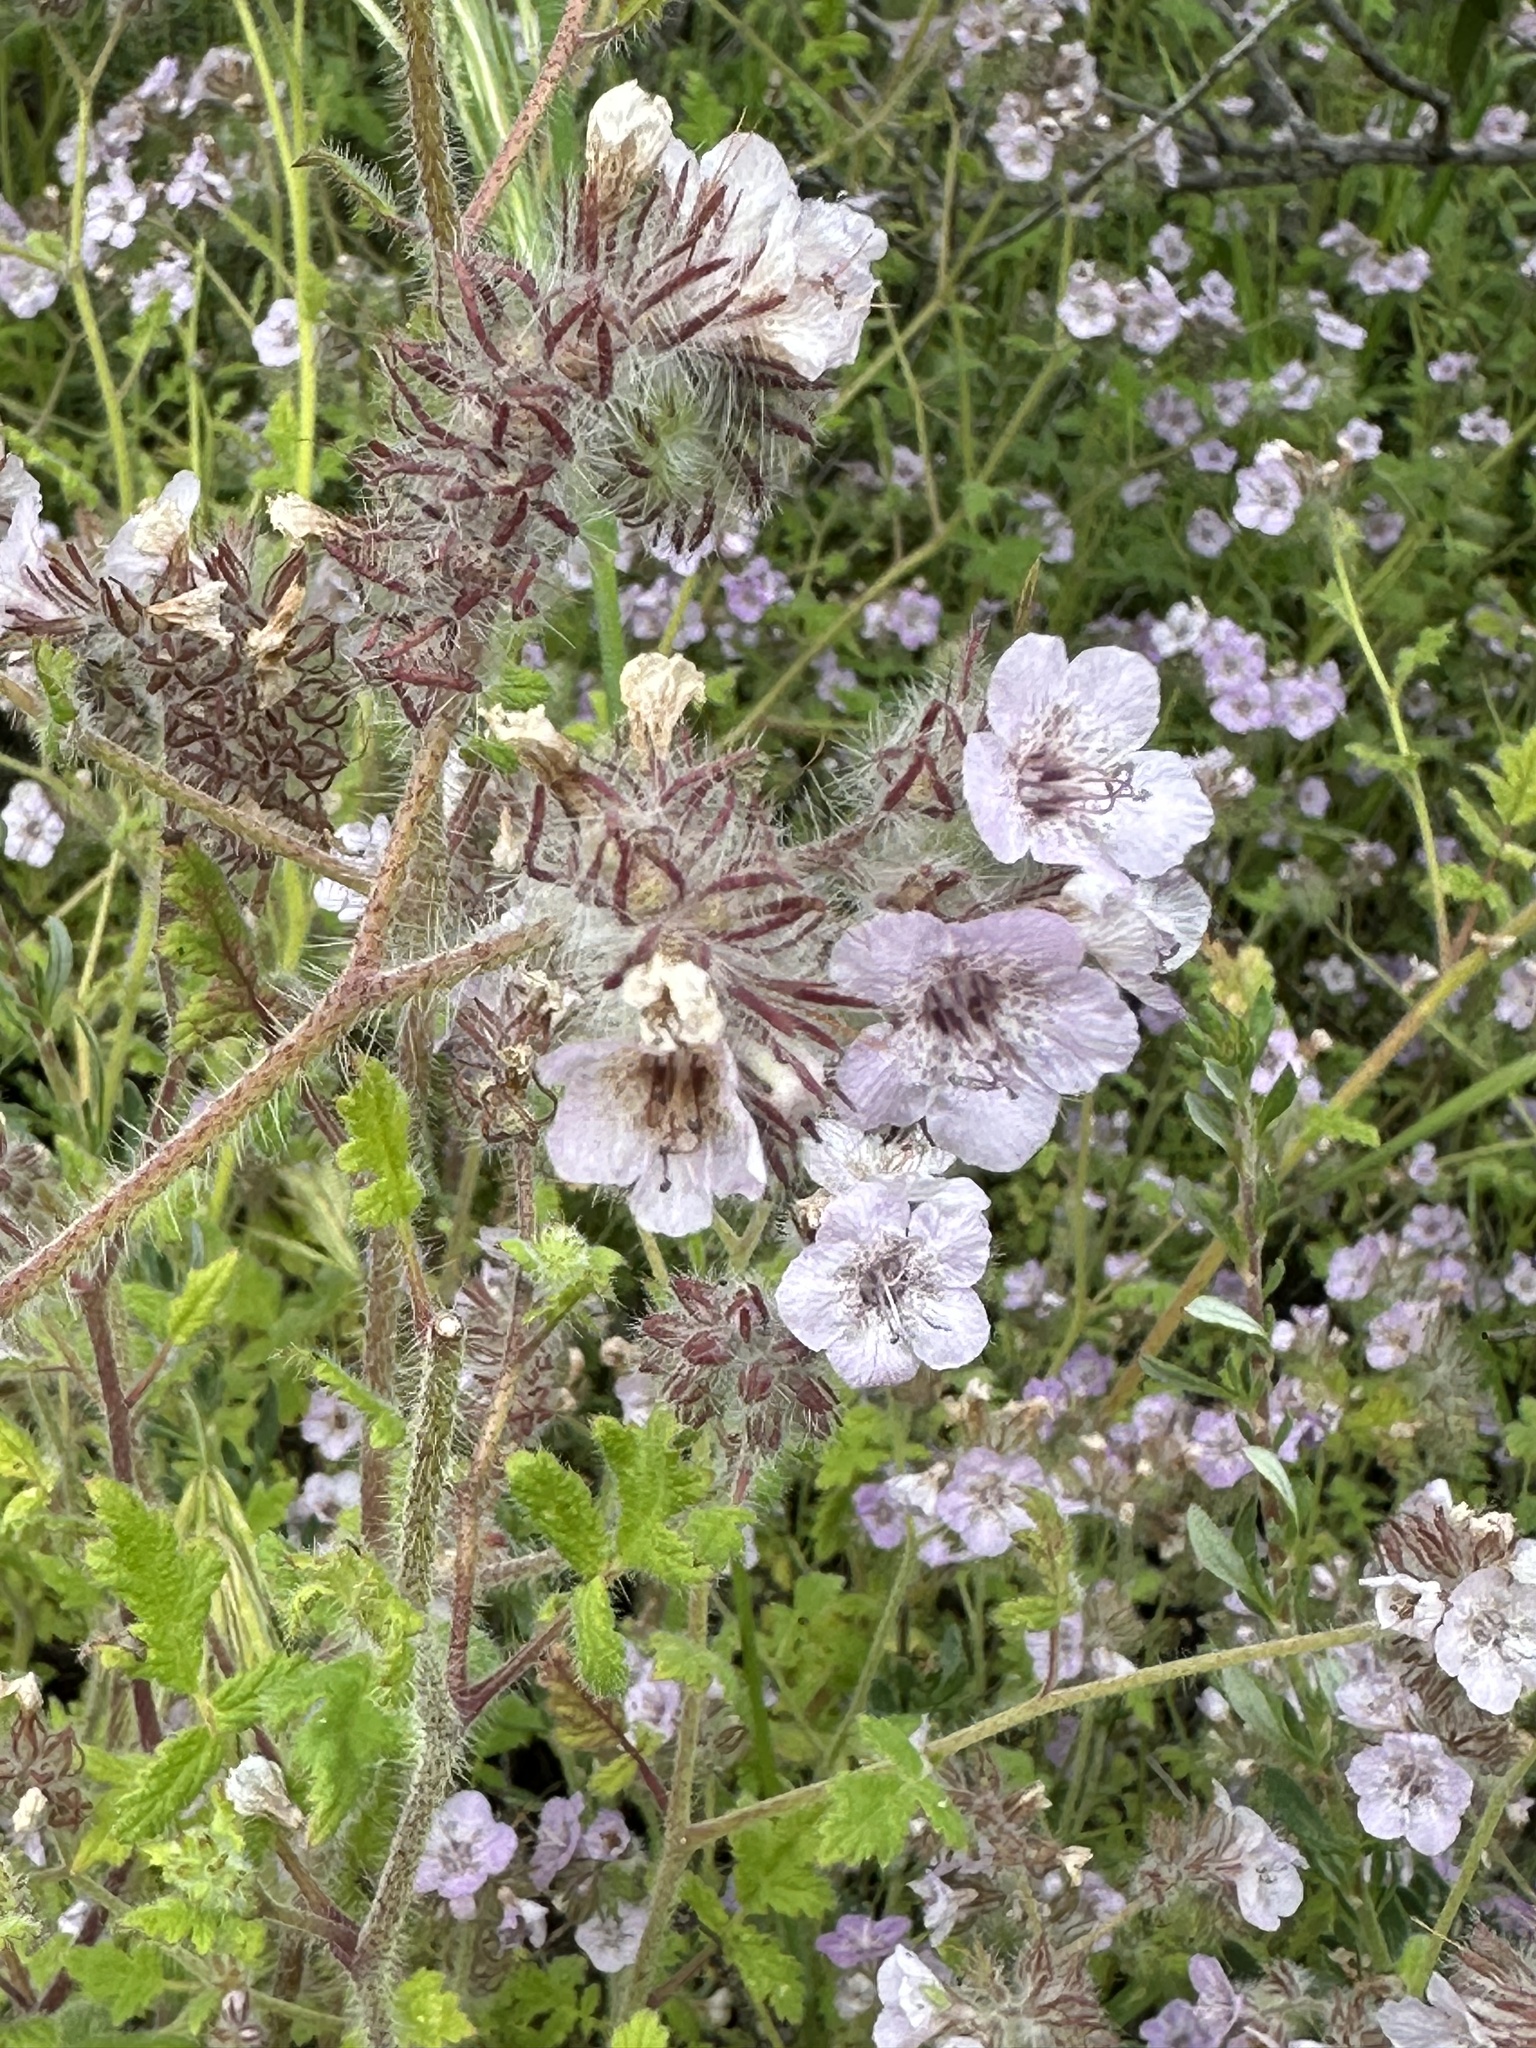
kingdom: Plantae
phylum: Tracheophyta
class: Magnoliopsida
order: Boraginales
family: Hydrophyllaceae
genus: Phacelia
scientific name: Phacelia cicutaria
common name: Caterpillar phacelia
